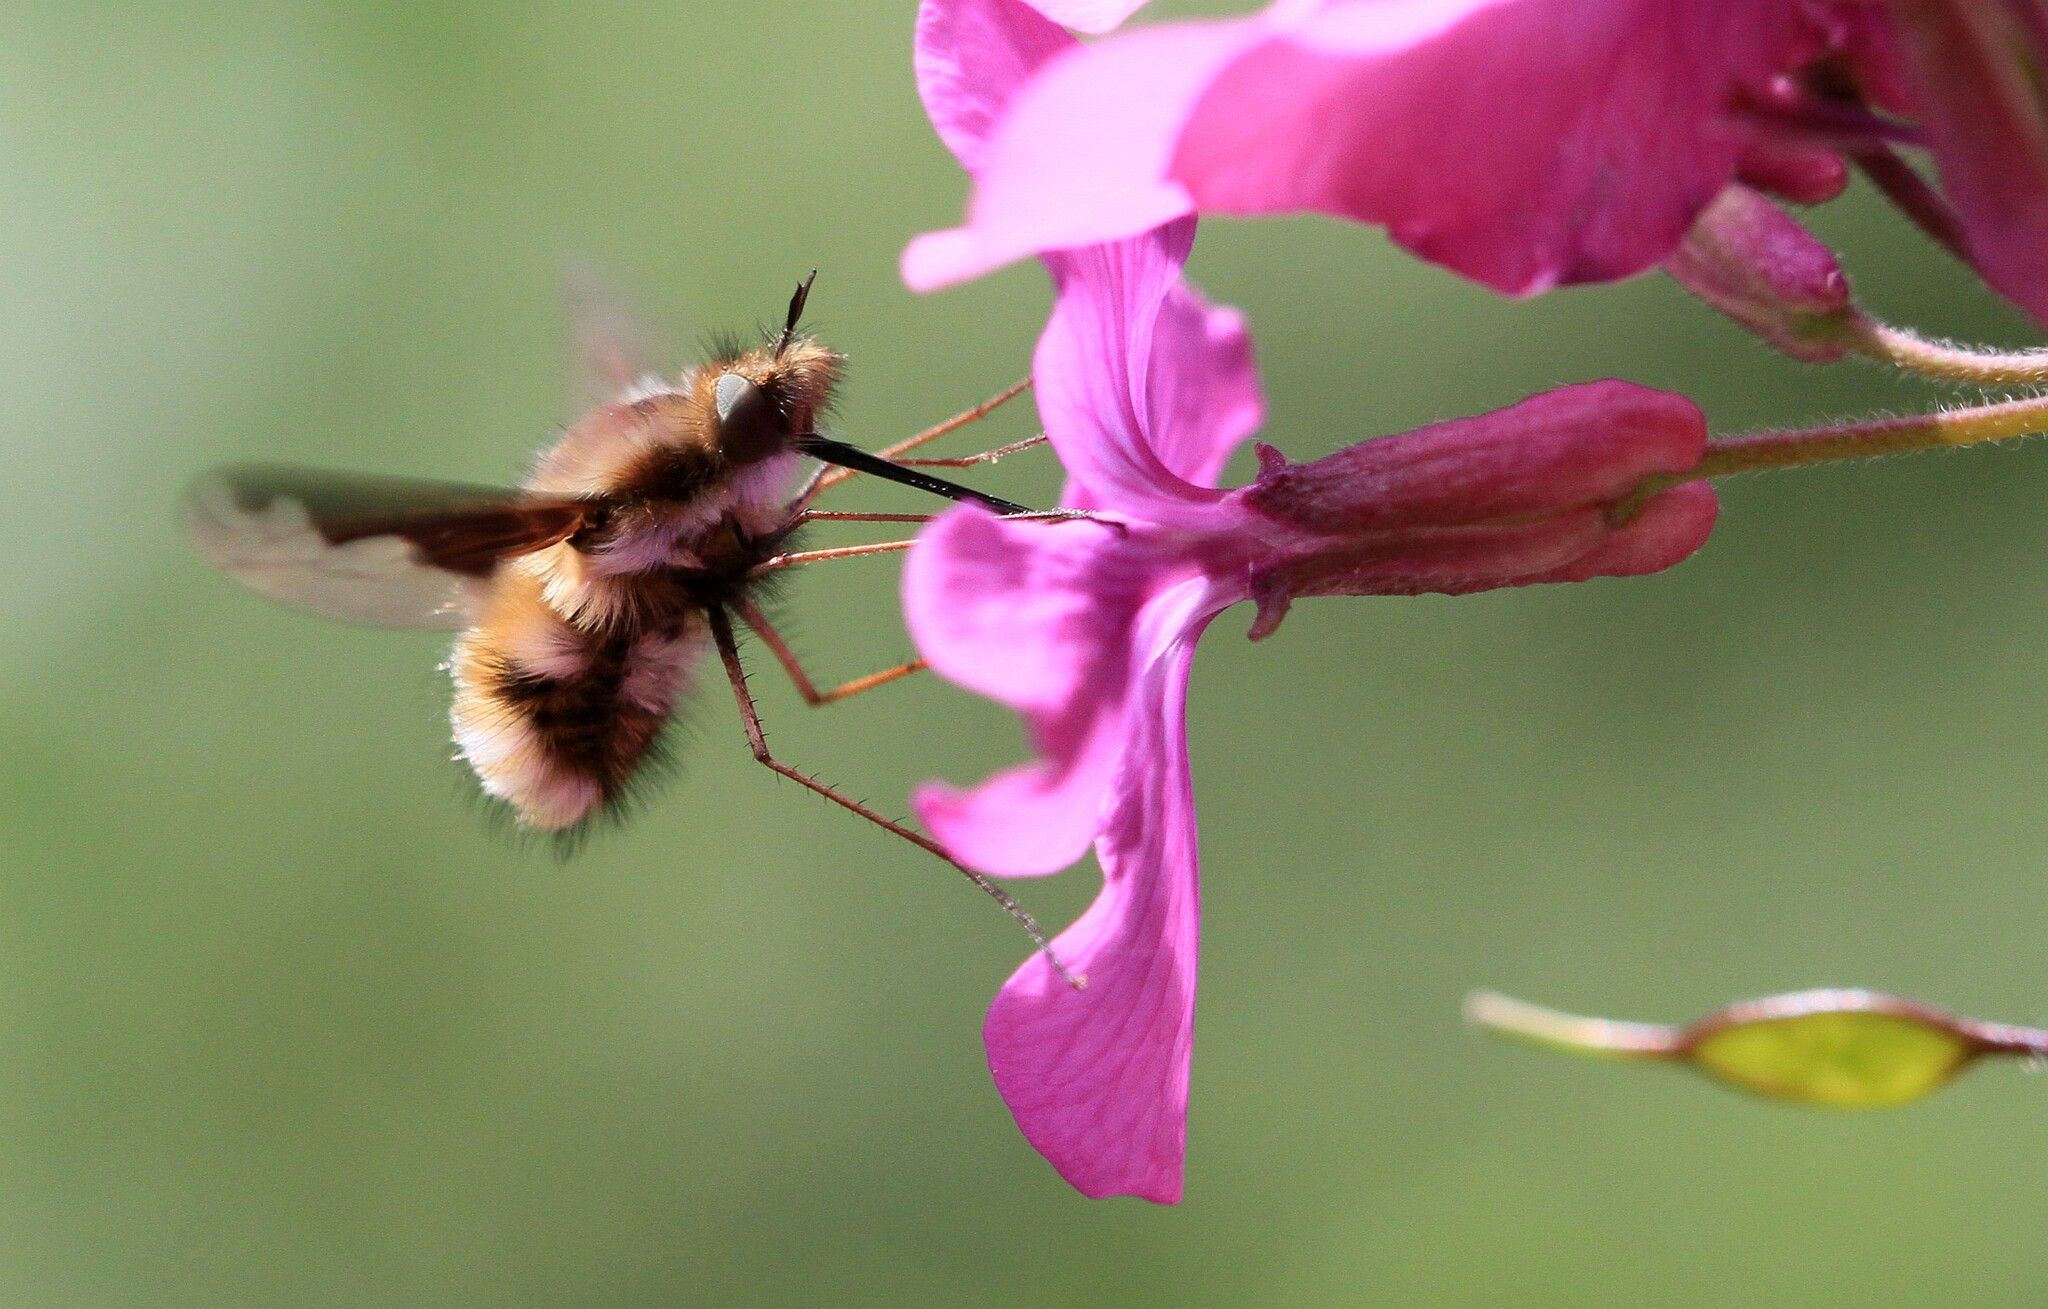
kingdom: Animalia
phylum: Arthropoda
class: Insecta
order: Diptera
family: Bombyliidae
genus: Bombylius
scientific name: Bombylius major
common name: Bee fly
